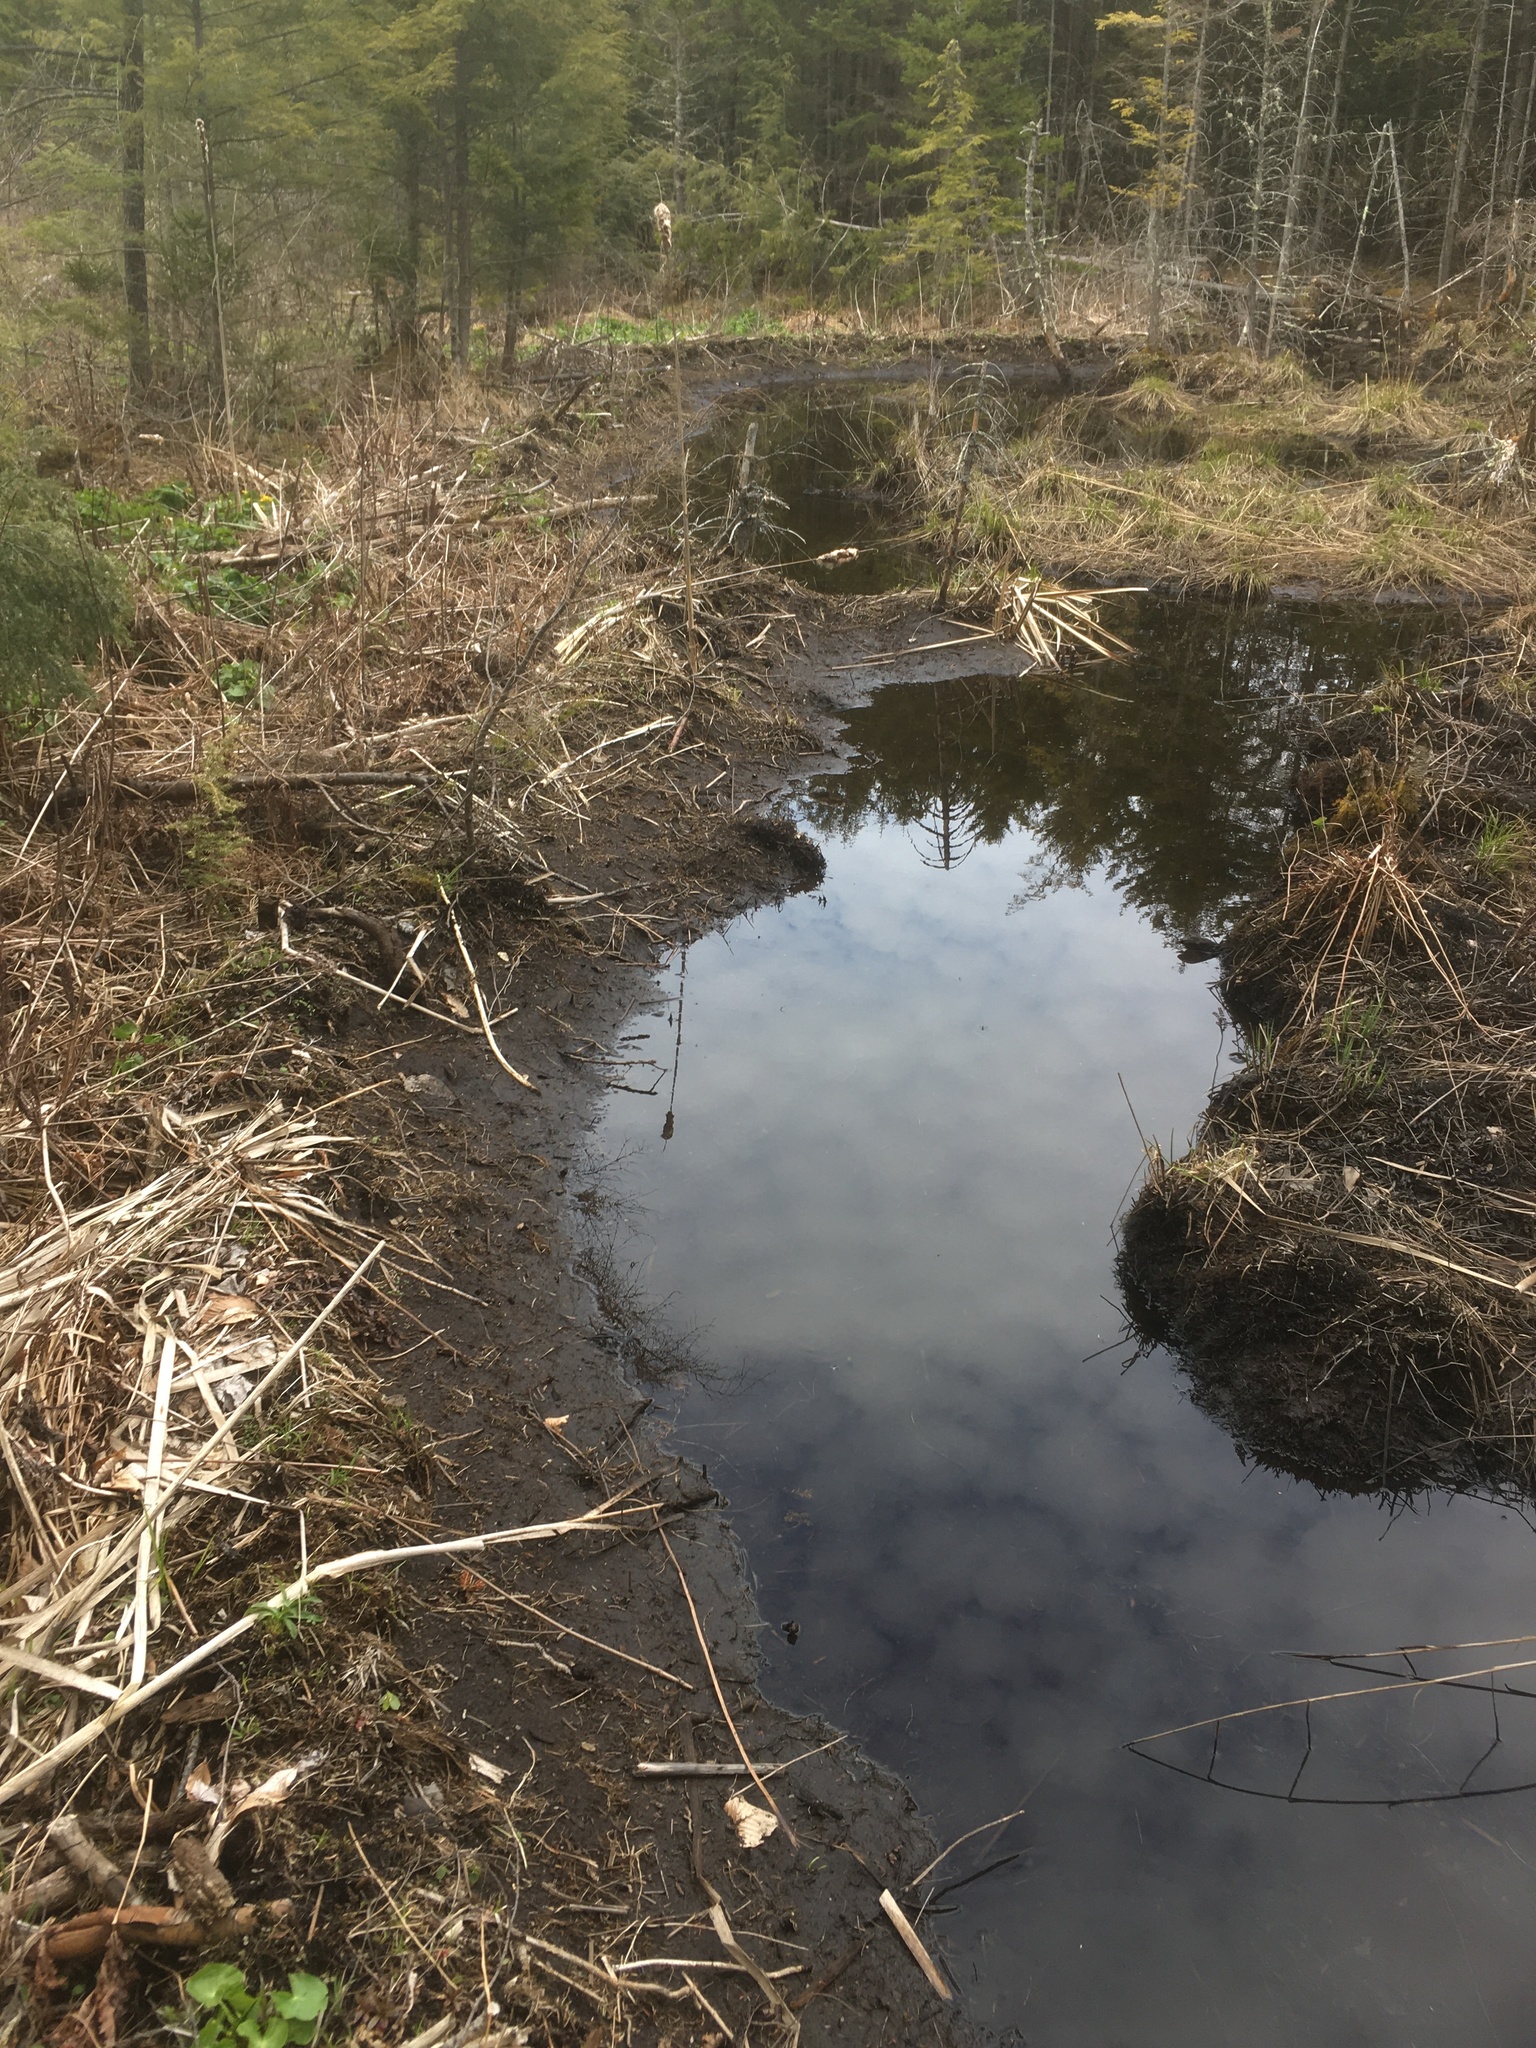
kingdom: Animalia
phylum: Chordata
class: Mammalia
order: Rodentia
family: Castoridae
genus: Castor
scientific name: Castor canadensis
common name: American beaver
